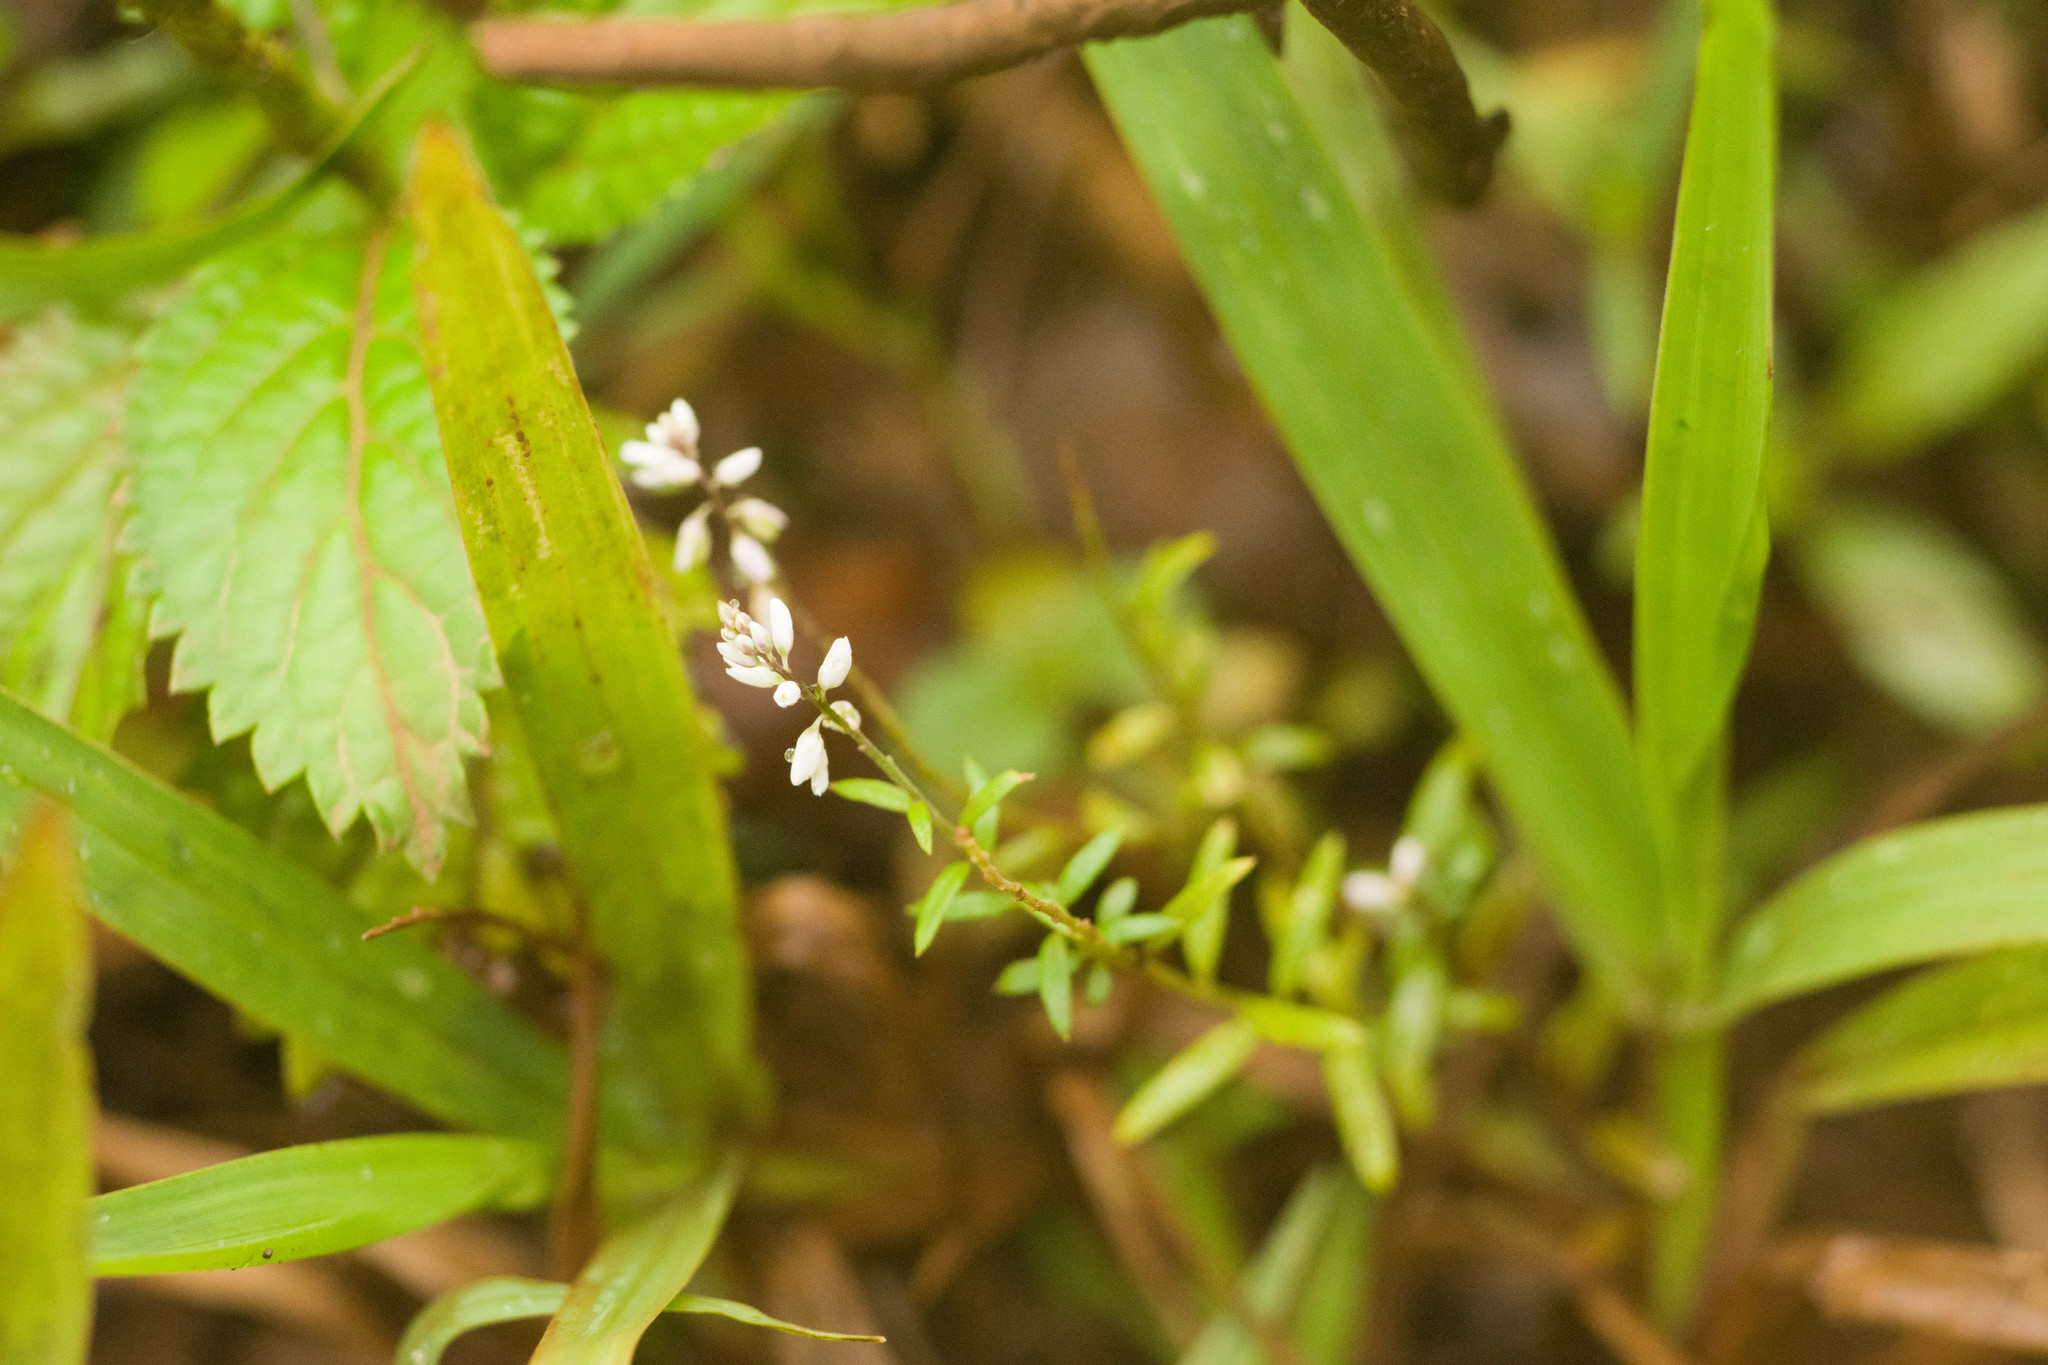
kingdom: Plantae
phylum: Tracheophyta
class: Magnoliopsida
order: Fabales
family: Polygalaceae
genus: Polygala
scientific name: Polygala paniculata
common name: Orosne
